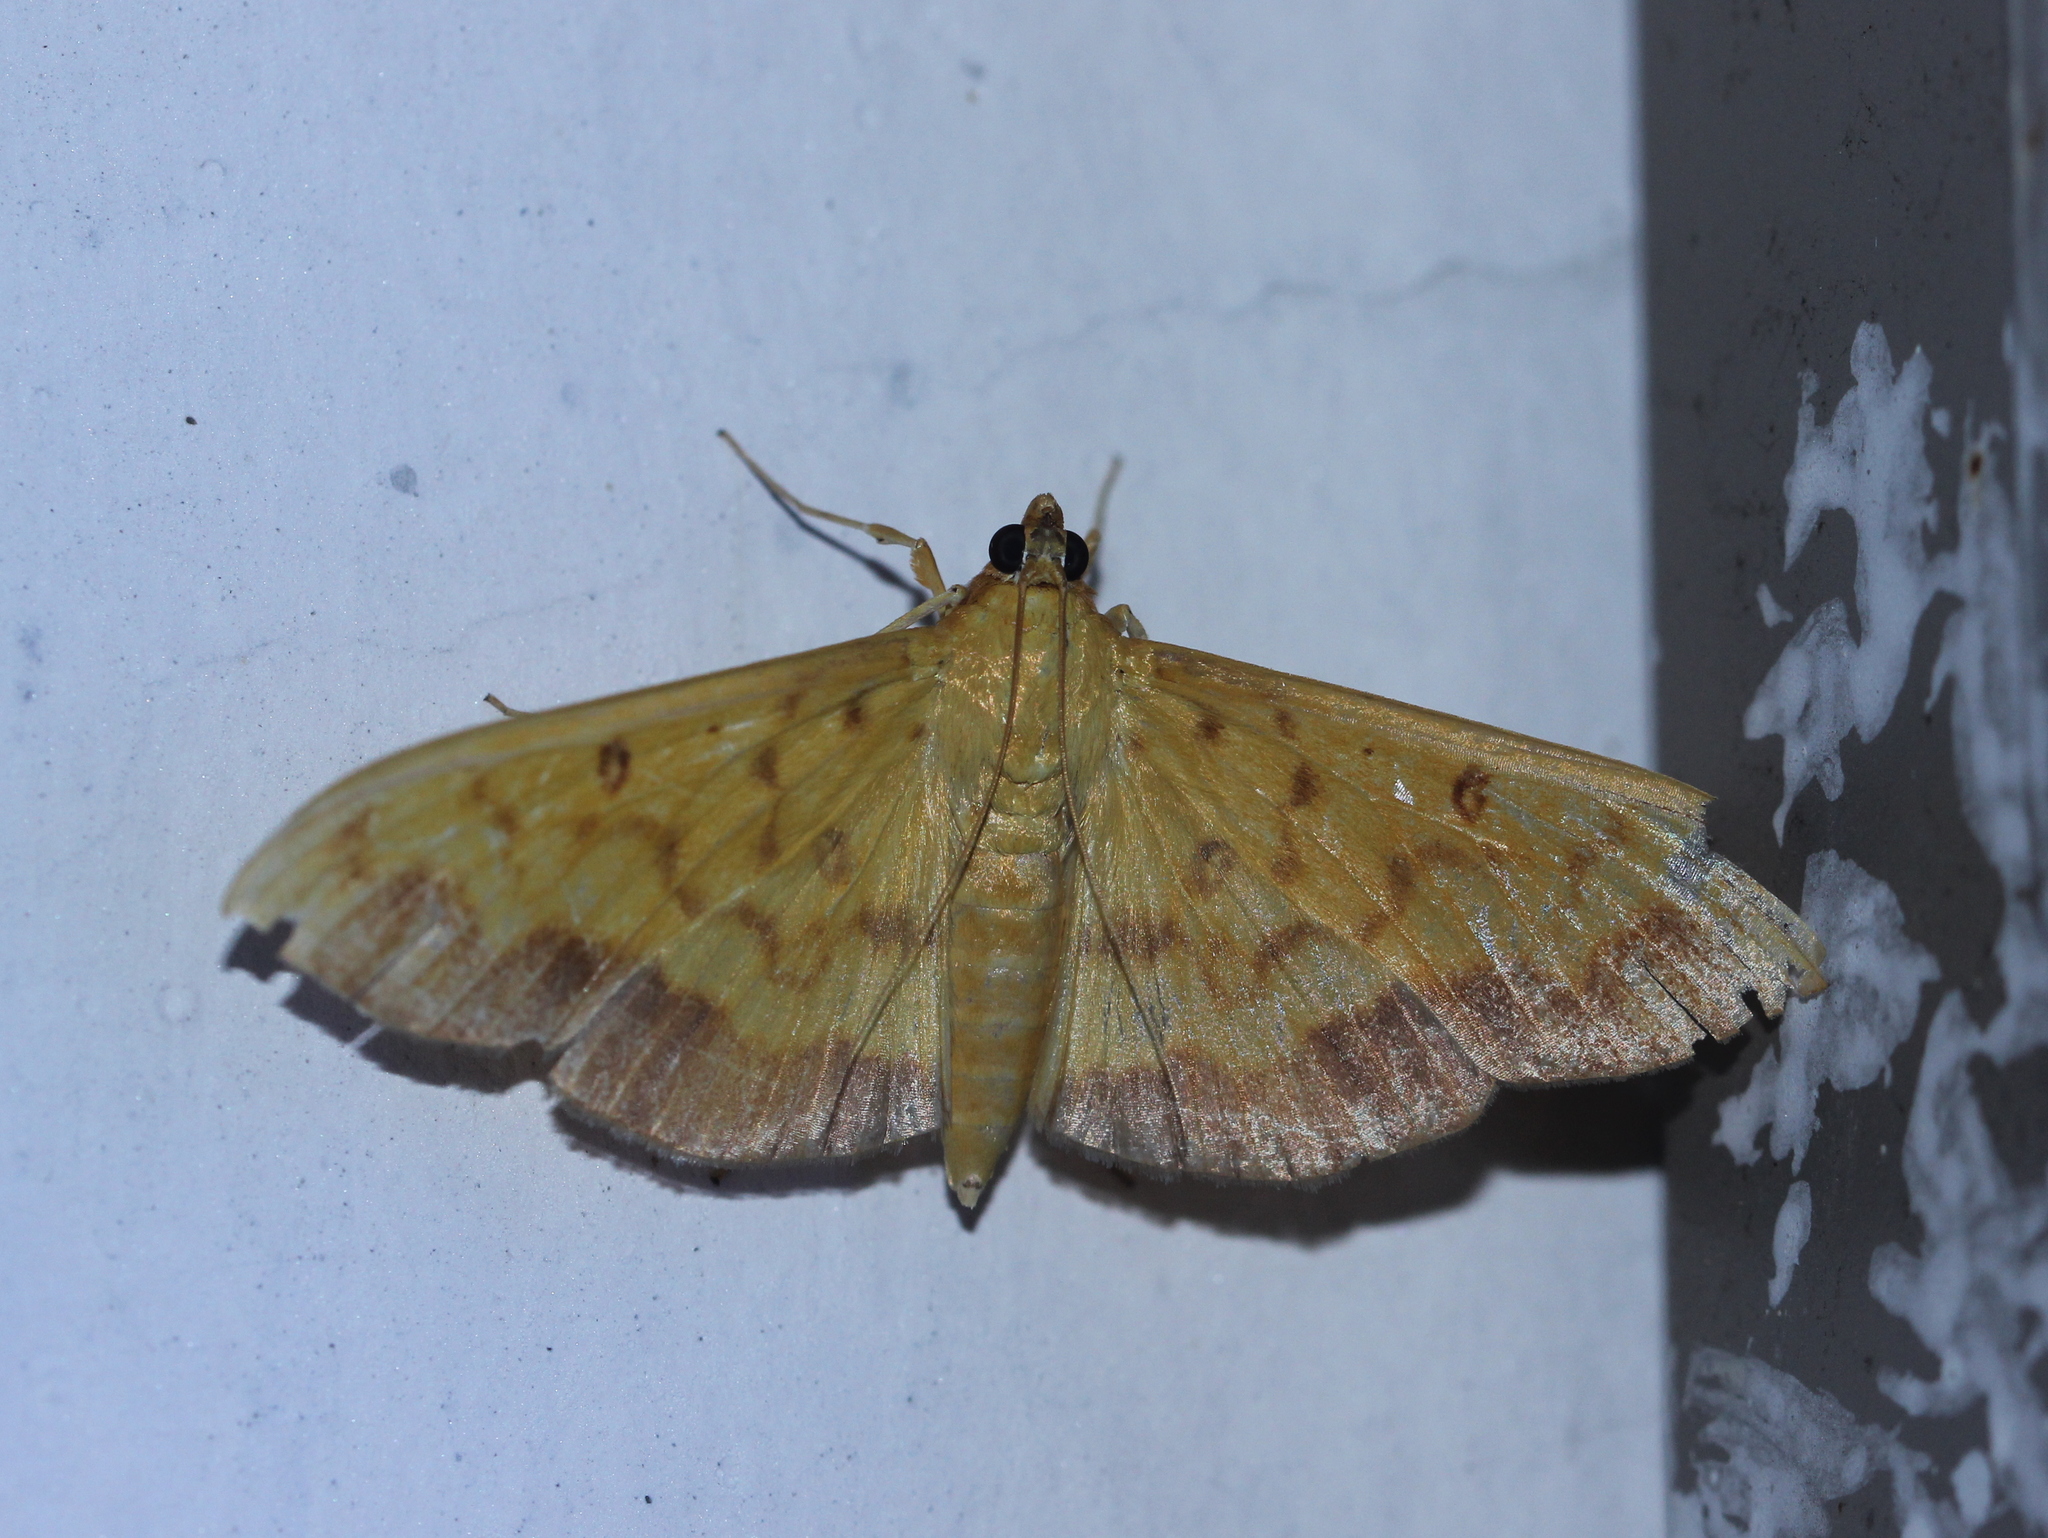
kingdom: Animalia
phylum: Arthropoda
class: Insecta
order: Lepidoptera
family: Crambidae
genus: Botyodes
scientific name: Botyodes asialis
